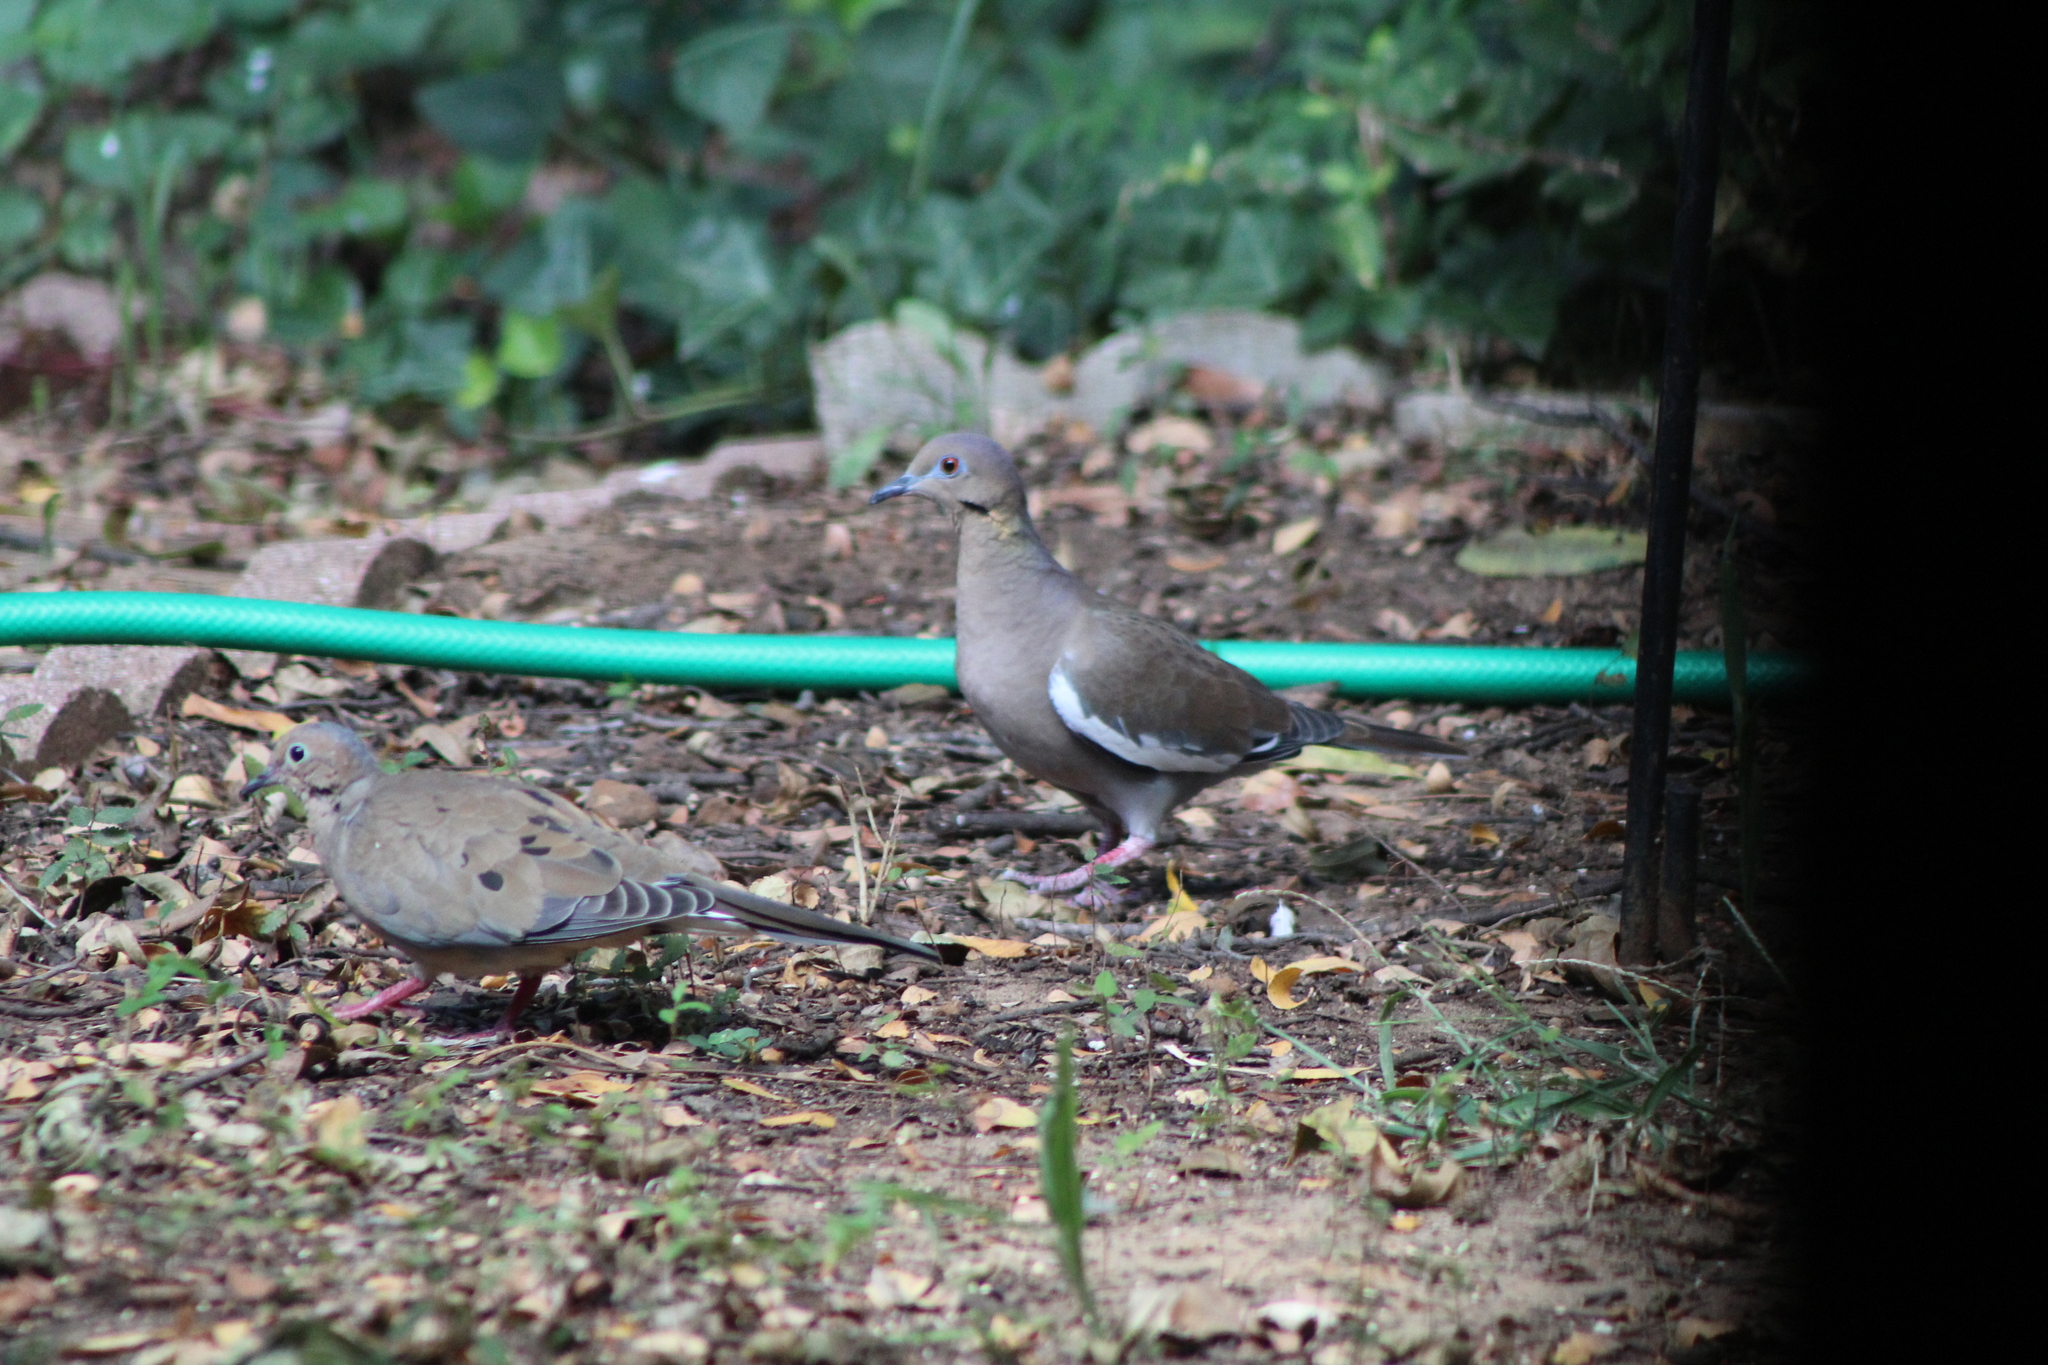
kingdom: Animalia
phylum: Chordata
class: Aves
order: Columbiformes
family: Columbidae
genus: Zenaida
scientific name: Zenaida asiatica
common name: White-winged dove
